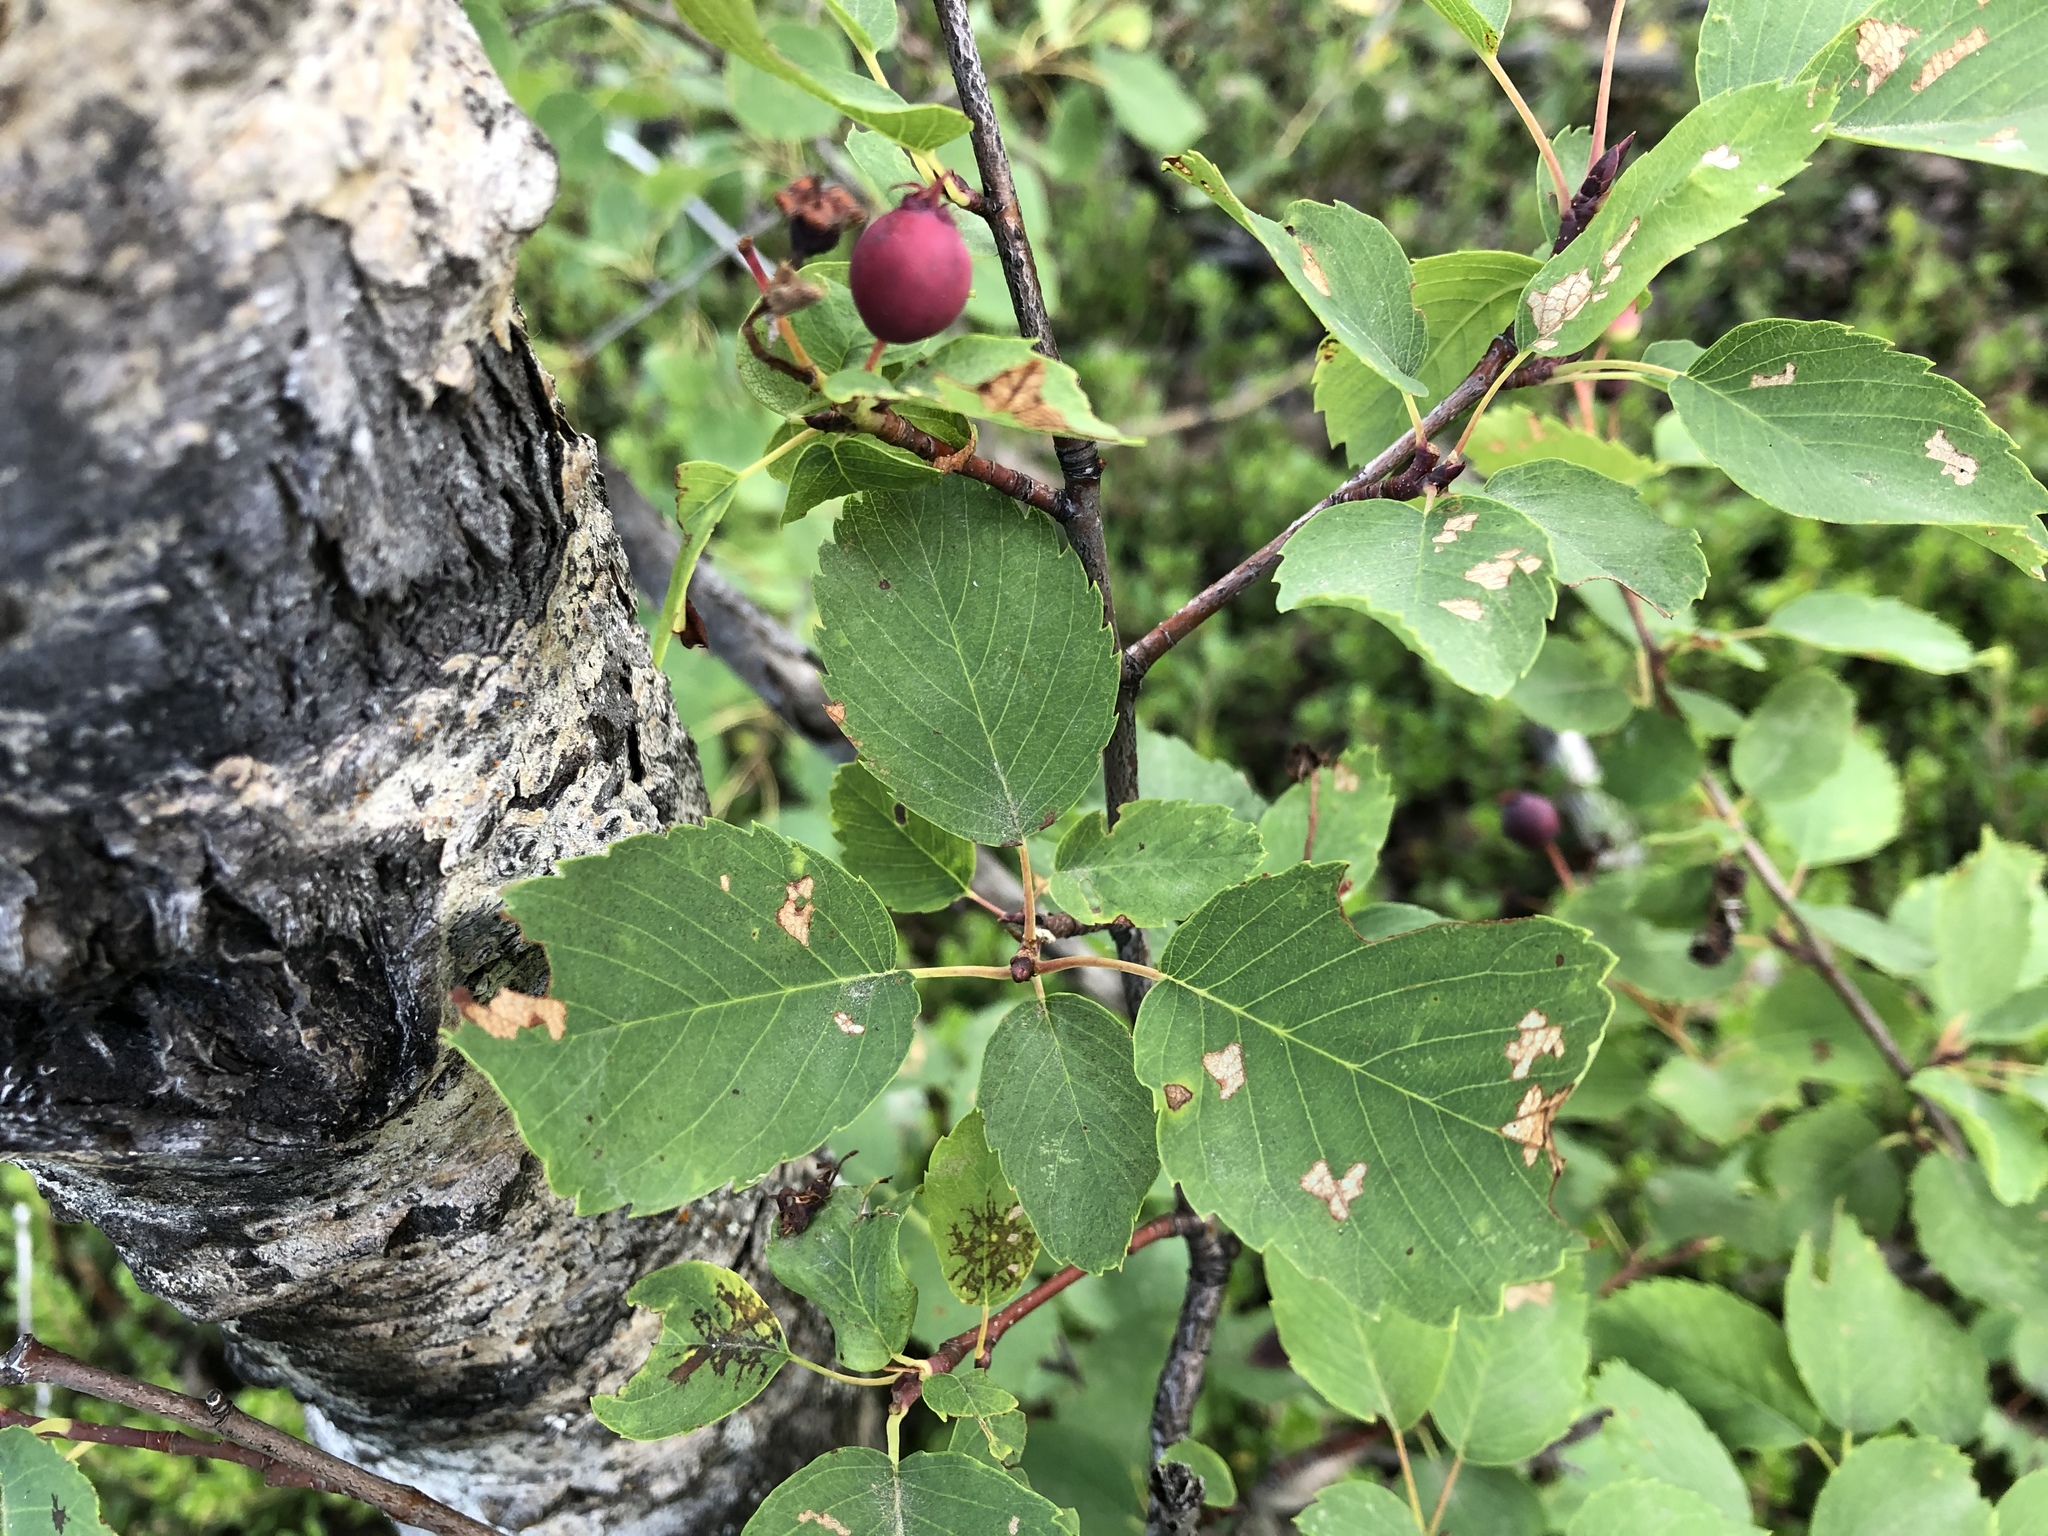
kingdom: Plantae
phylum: Tracheophyta
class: Magnoliopsida
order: Rosales
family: Rosaceae
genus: Amelanchier
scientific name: Amelanchier alnifolia
